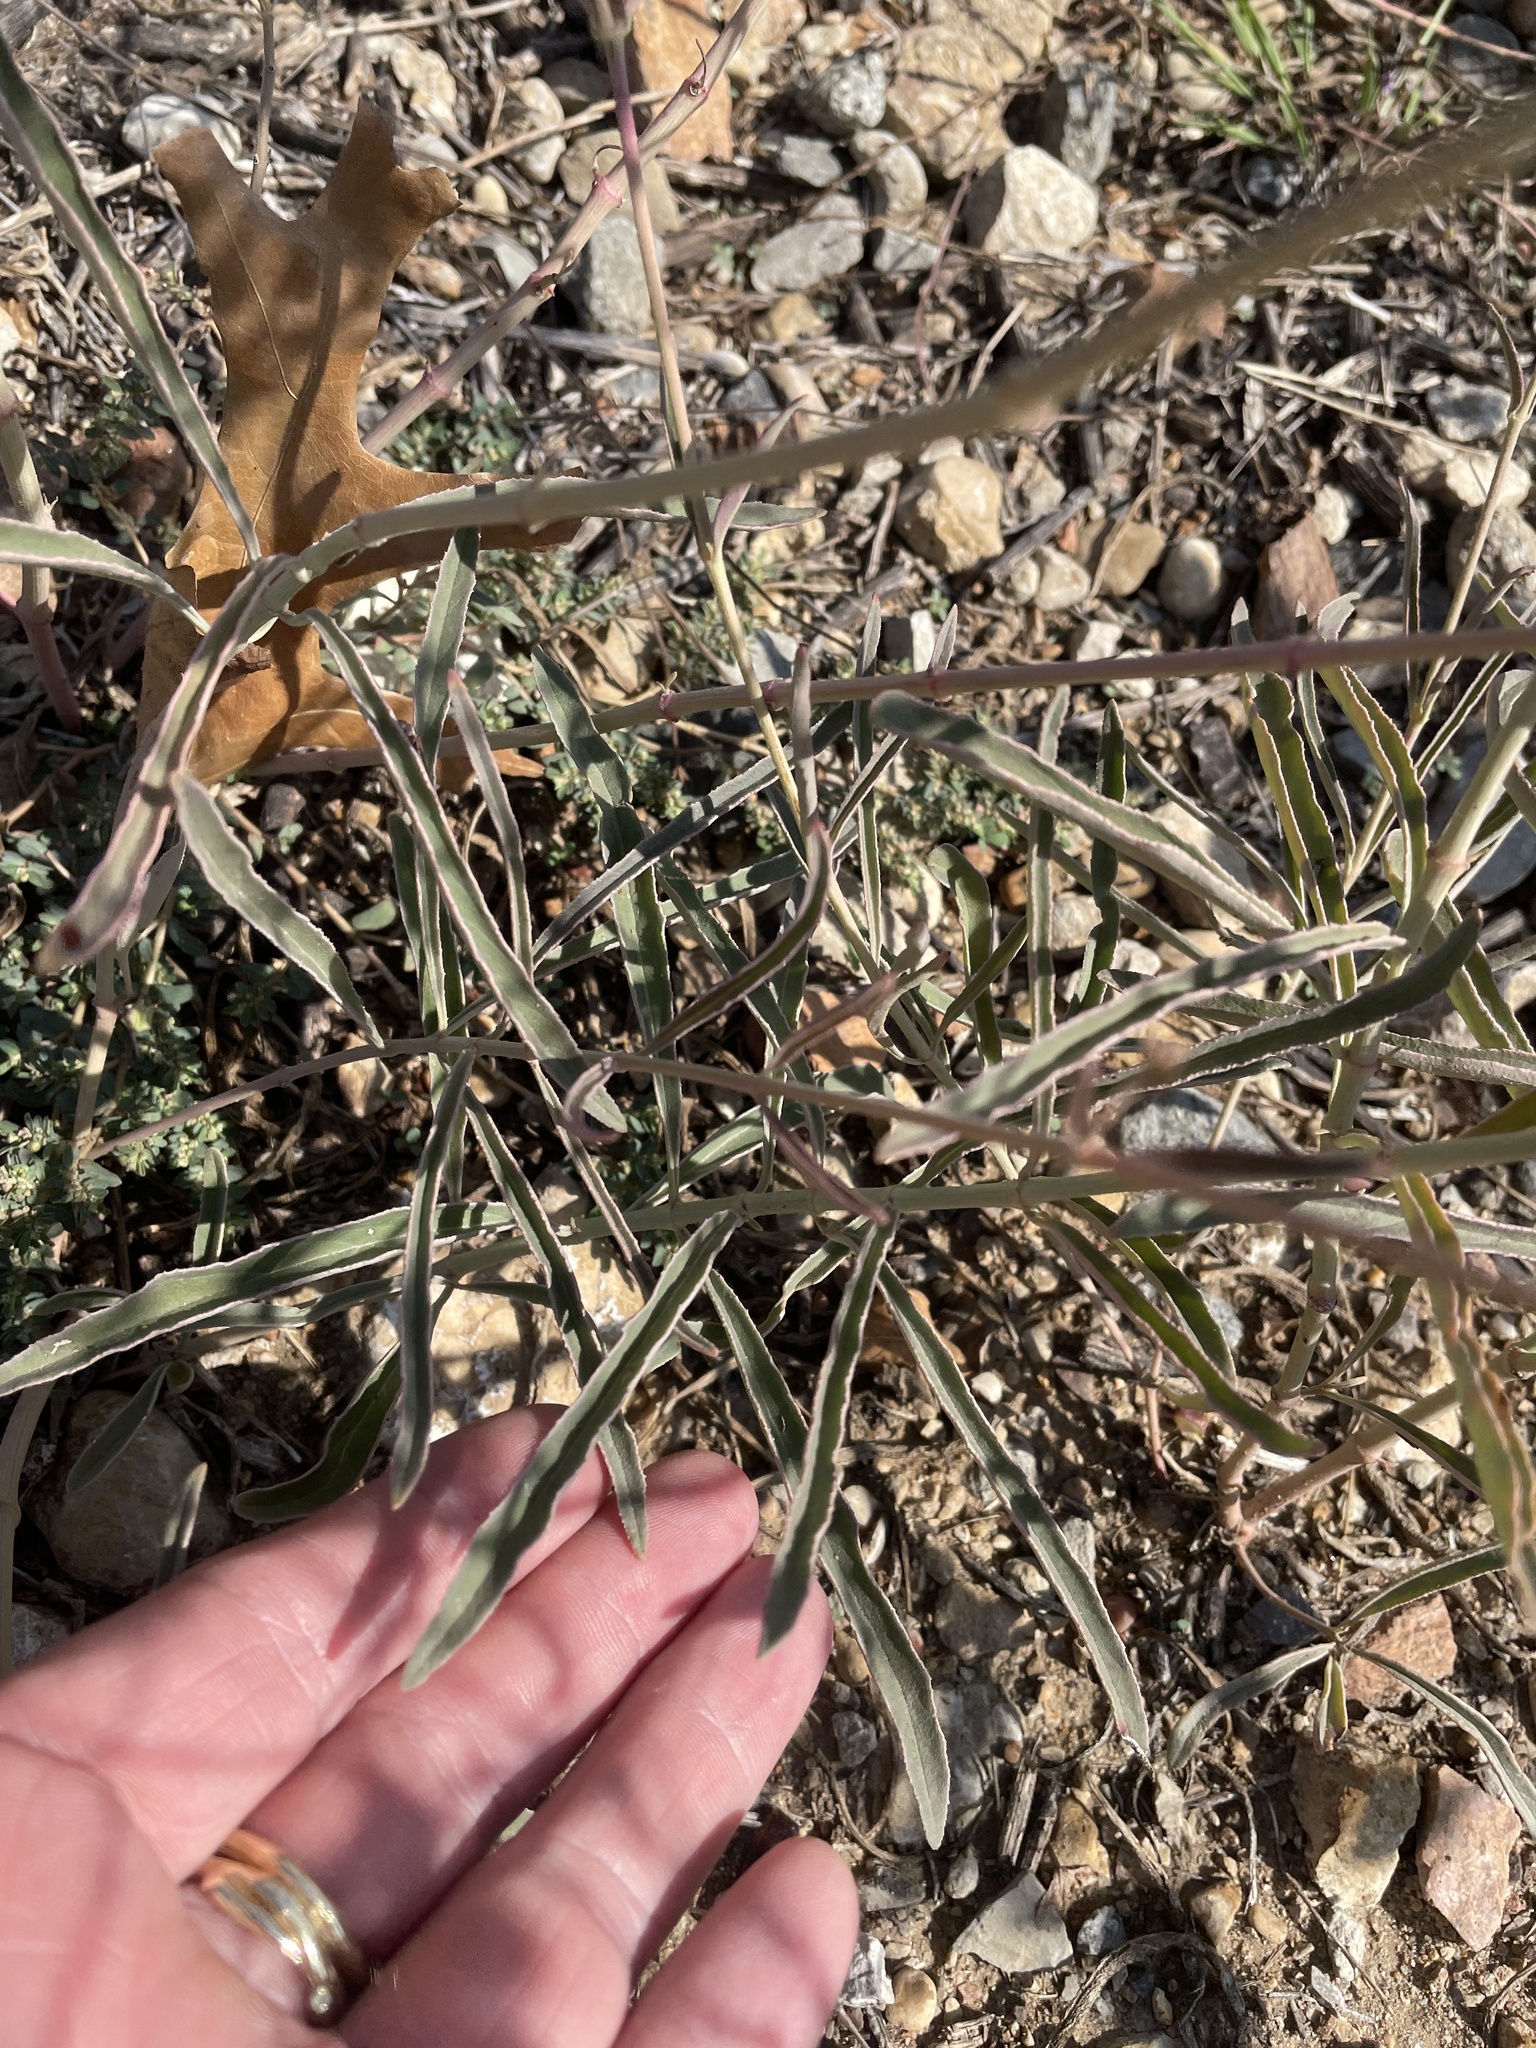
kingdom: Plantae
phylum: Tracheophyta
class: Magnoliopsida
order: Caryophyllales
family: Nyctaginaceae
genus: Mirabilis
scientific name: Mirabilis linearis
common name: Linear-leaved four-o'clock
